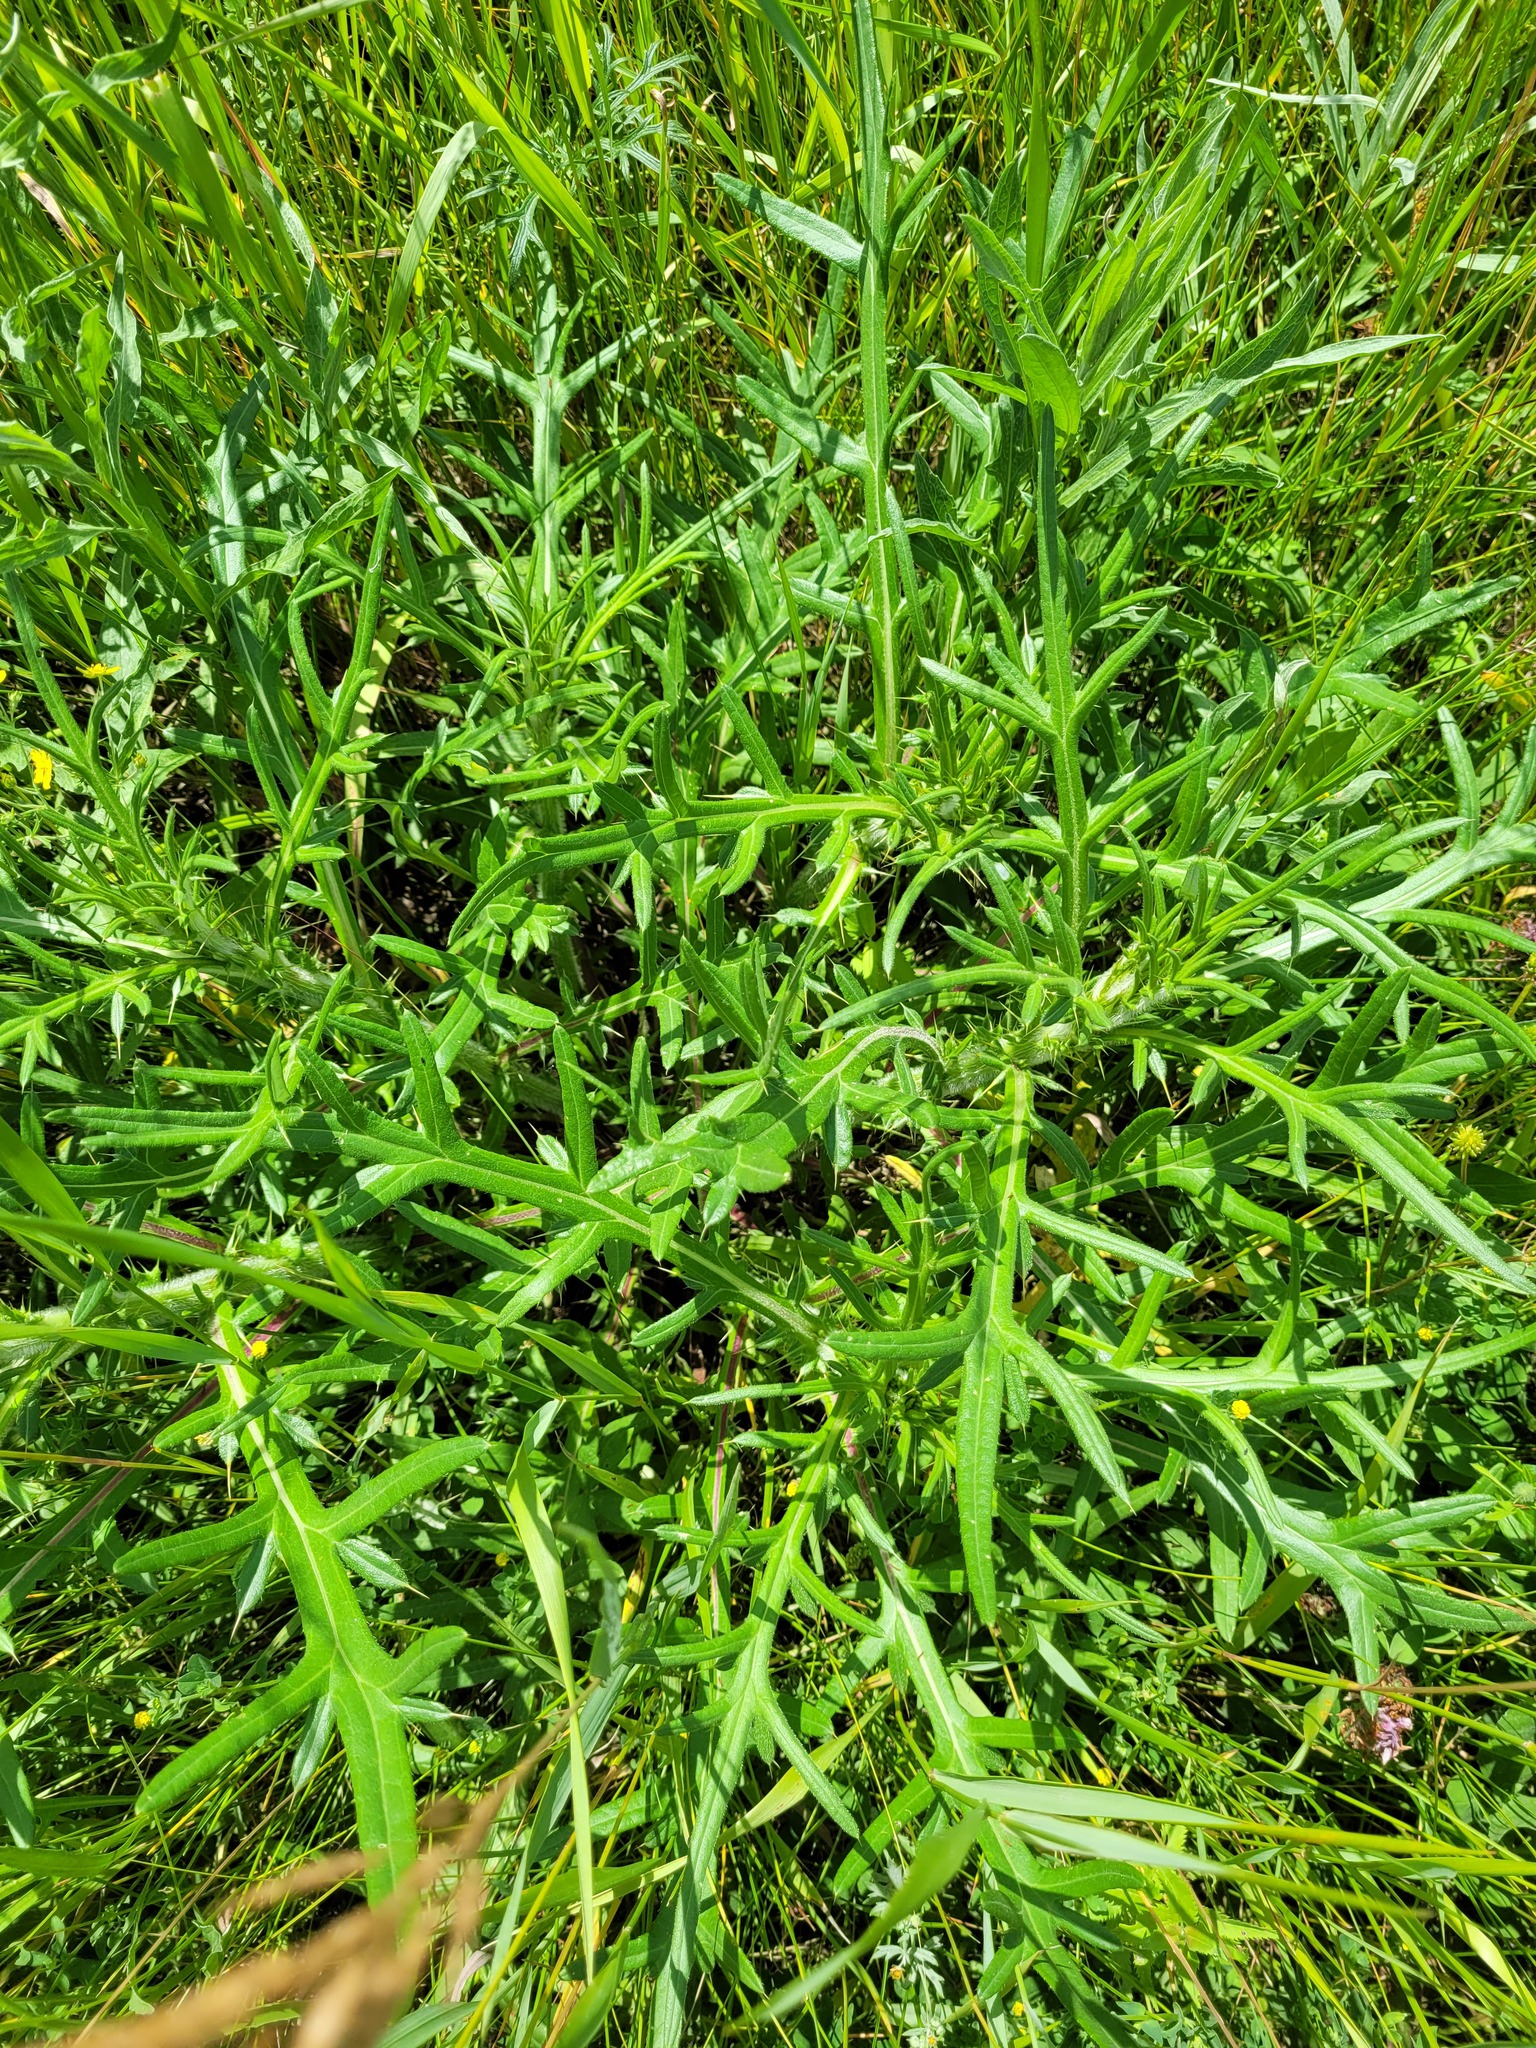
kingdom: Plantae
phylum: Tracheophyta
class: Magnoliopsida
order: Asterales
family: Asteraceae
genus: Cirsium
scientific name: Cirsium serrulatum
